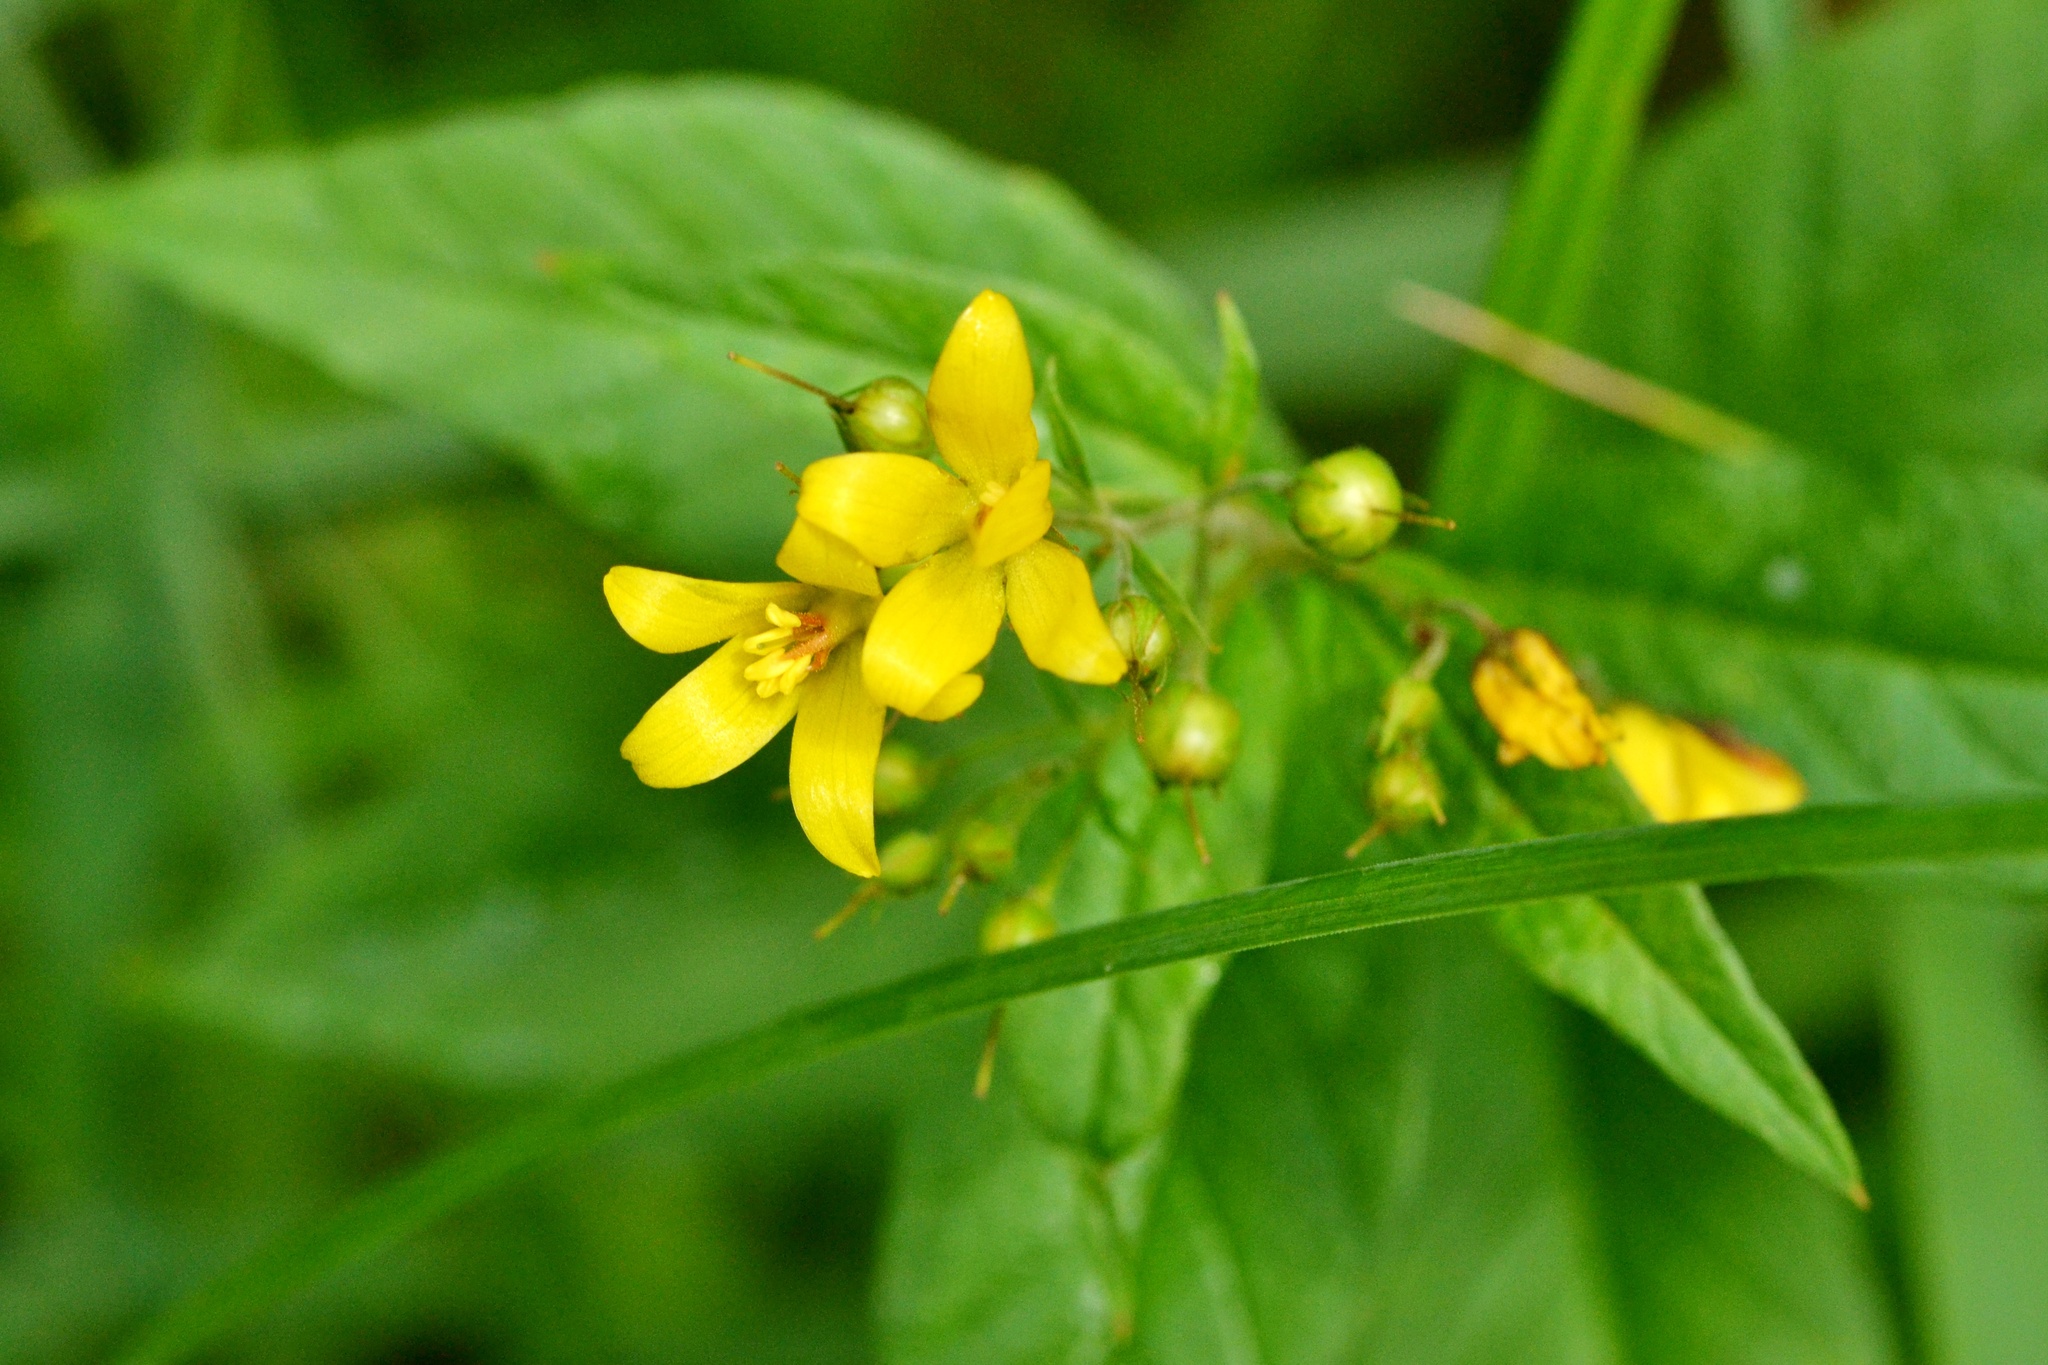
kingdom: Plantae
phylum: Tracheophyta
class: Magnoliopsida
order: Ericales
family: Primulaceae
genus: Lysimachia
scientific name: Lysimachia vulgaris
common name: Yellow loosestrife
